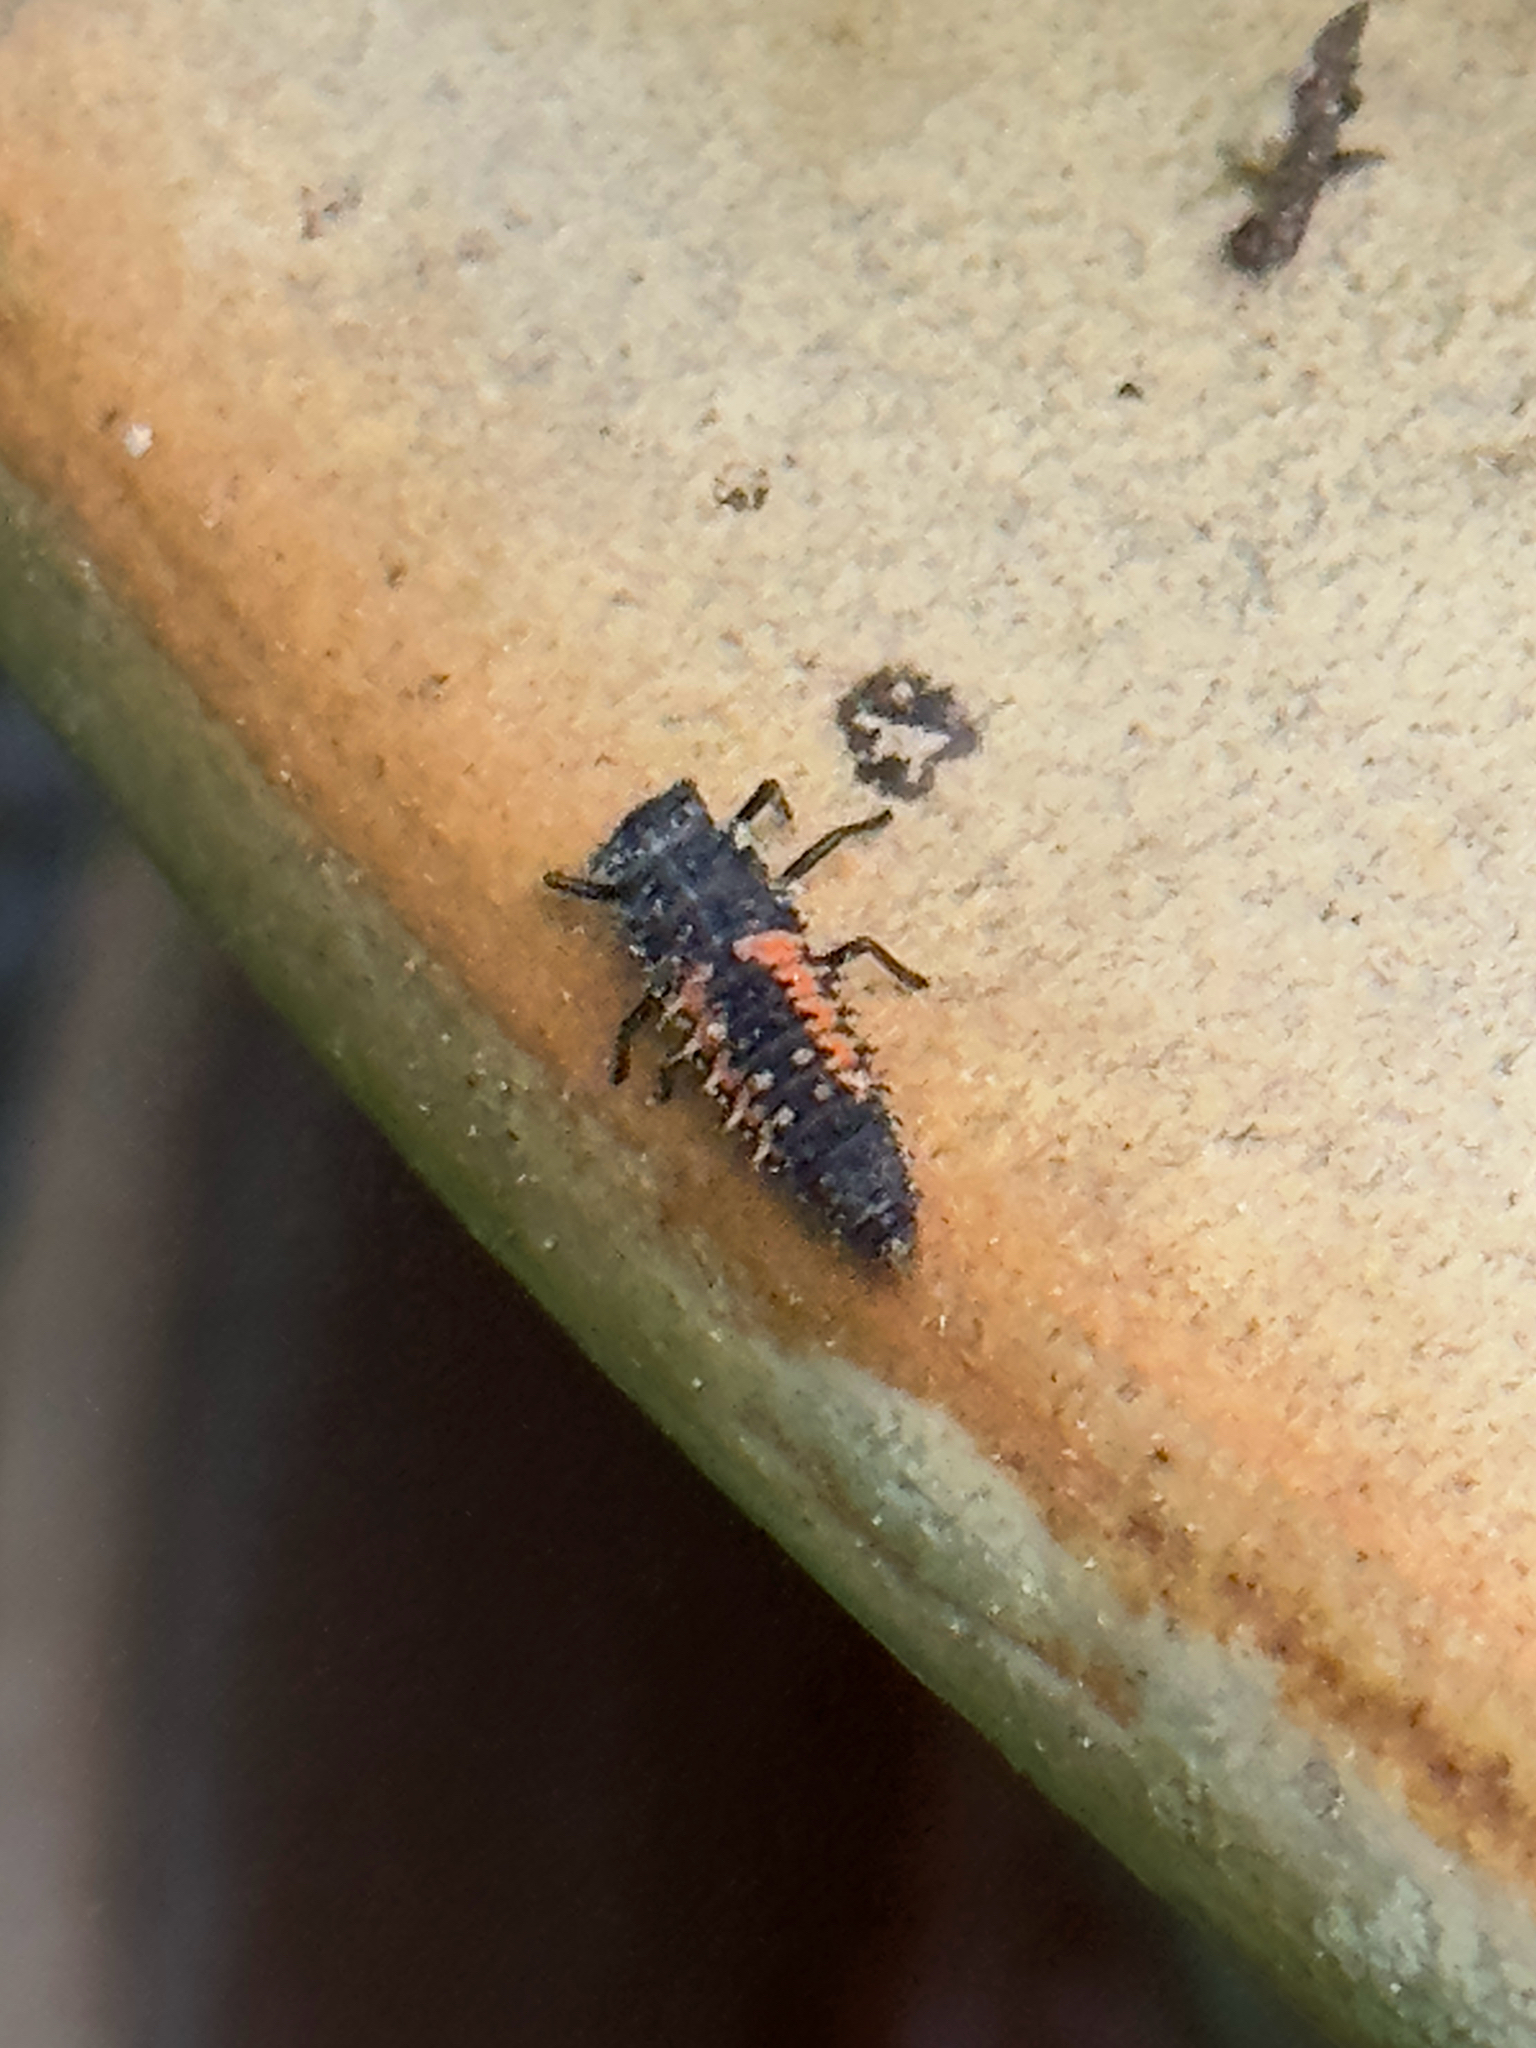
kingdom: Animalia
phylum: Arthropoda
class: Insecta
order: Coleoptera
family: Coccinellidae
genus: Harmonia
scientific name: Harmonia axyridis
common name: Harlequin ladybird
